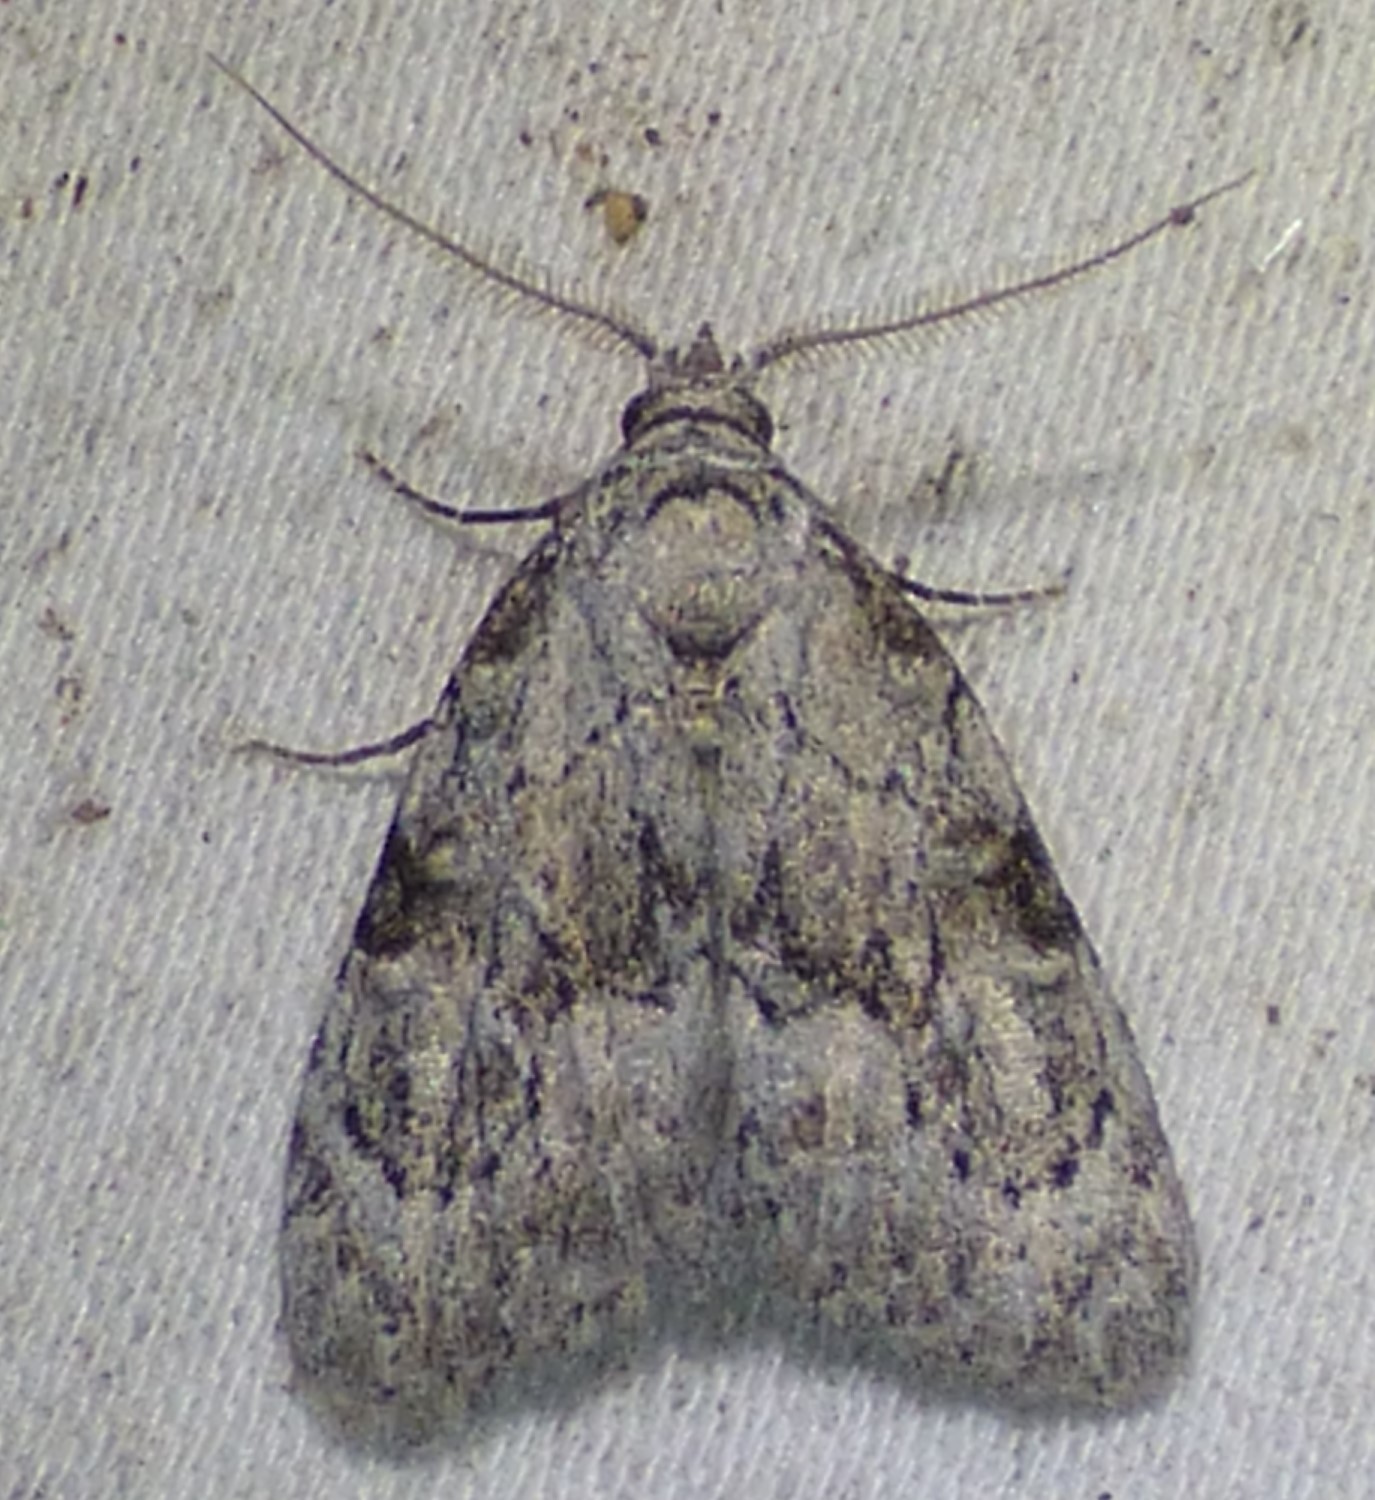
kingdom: Animalia
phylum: Arthropoda
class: Insecta
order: Lepidoptera
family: Nolidae
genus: Meganola
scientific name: Meganola minuscula
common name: Confused meganola moth
